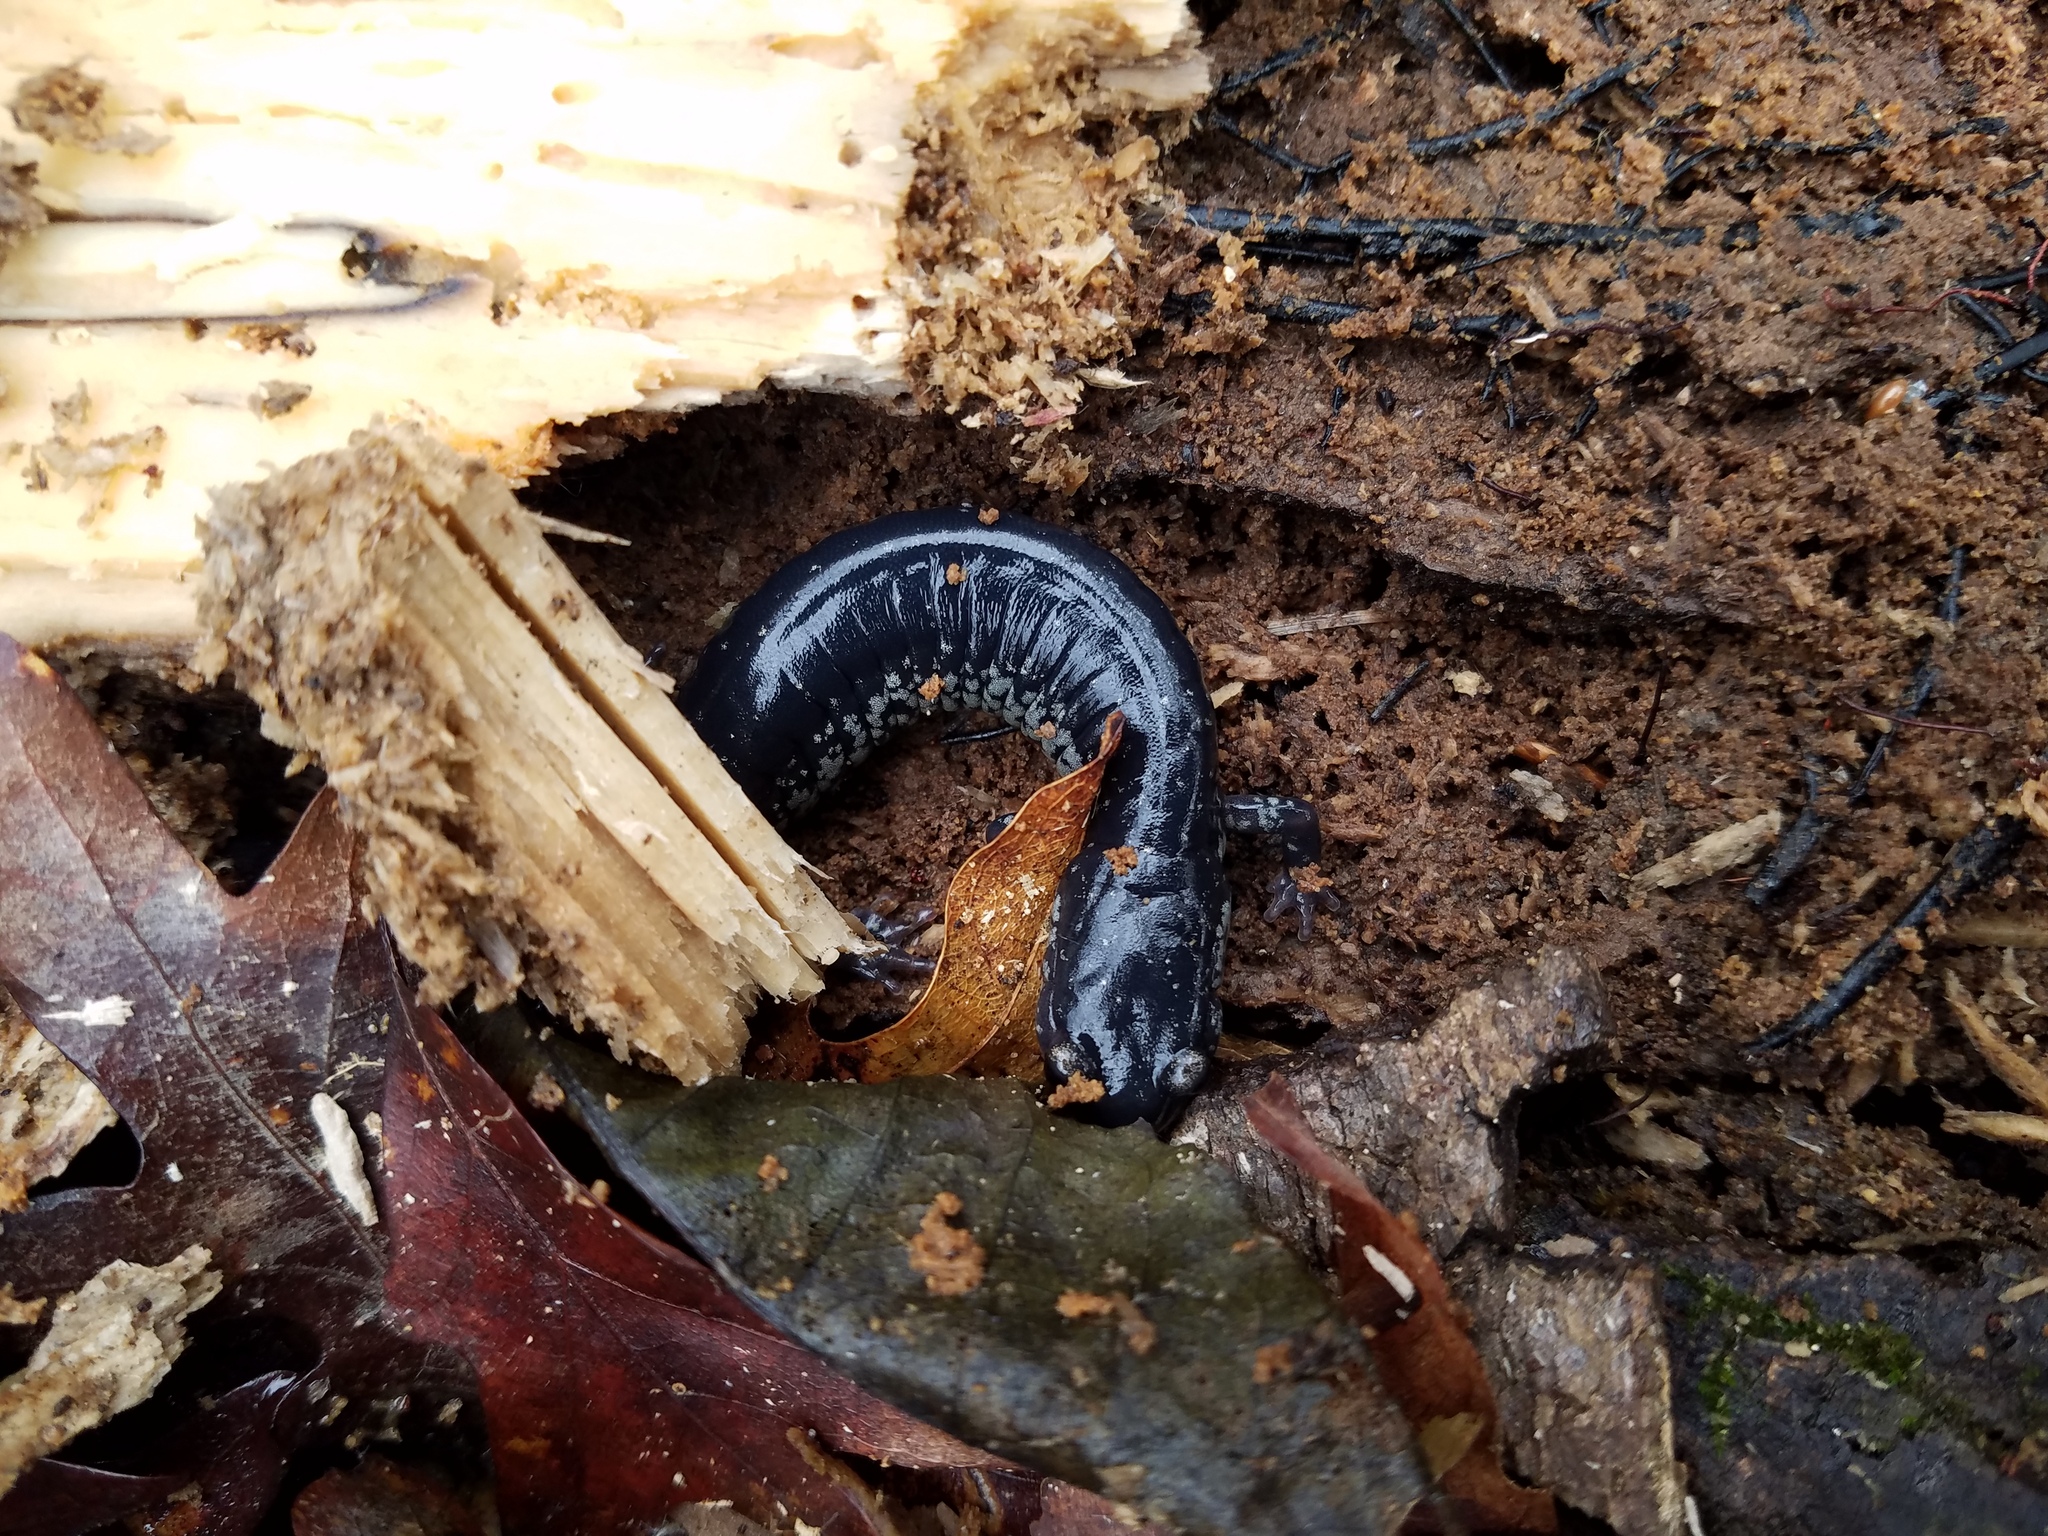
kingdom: Animalia
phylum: Chordata
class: Amphibia
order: Caudata
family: Plethodontidae
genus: Plethodon
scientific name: Plethodon glutinosus
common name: Northern slimy salamander
